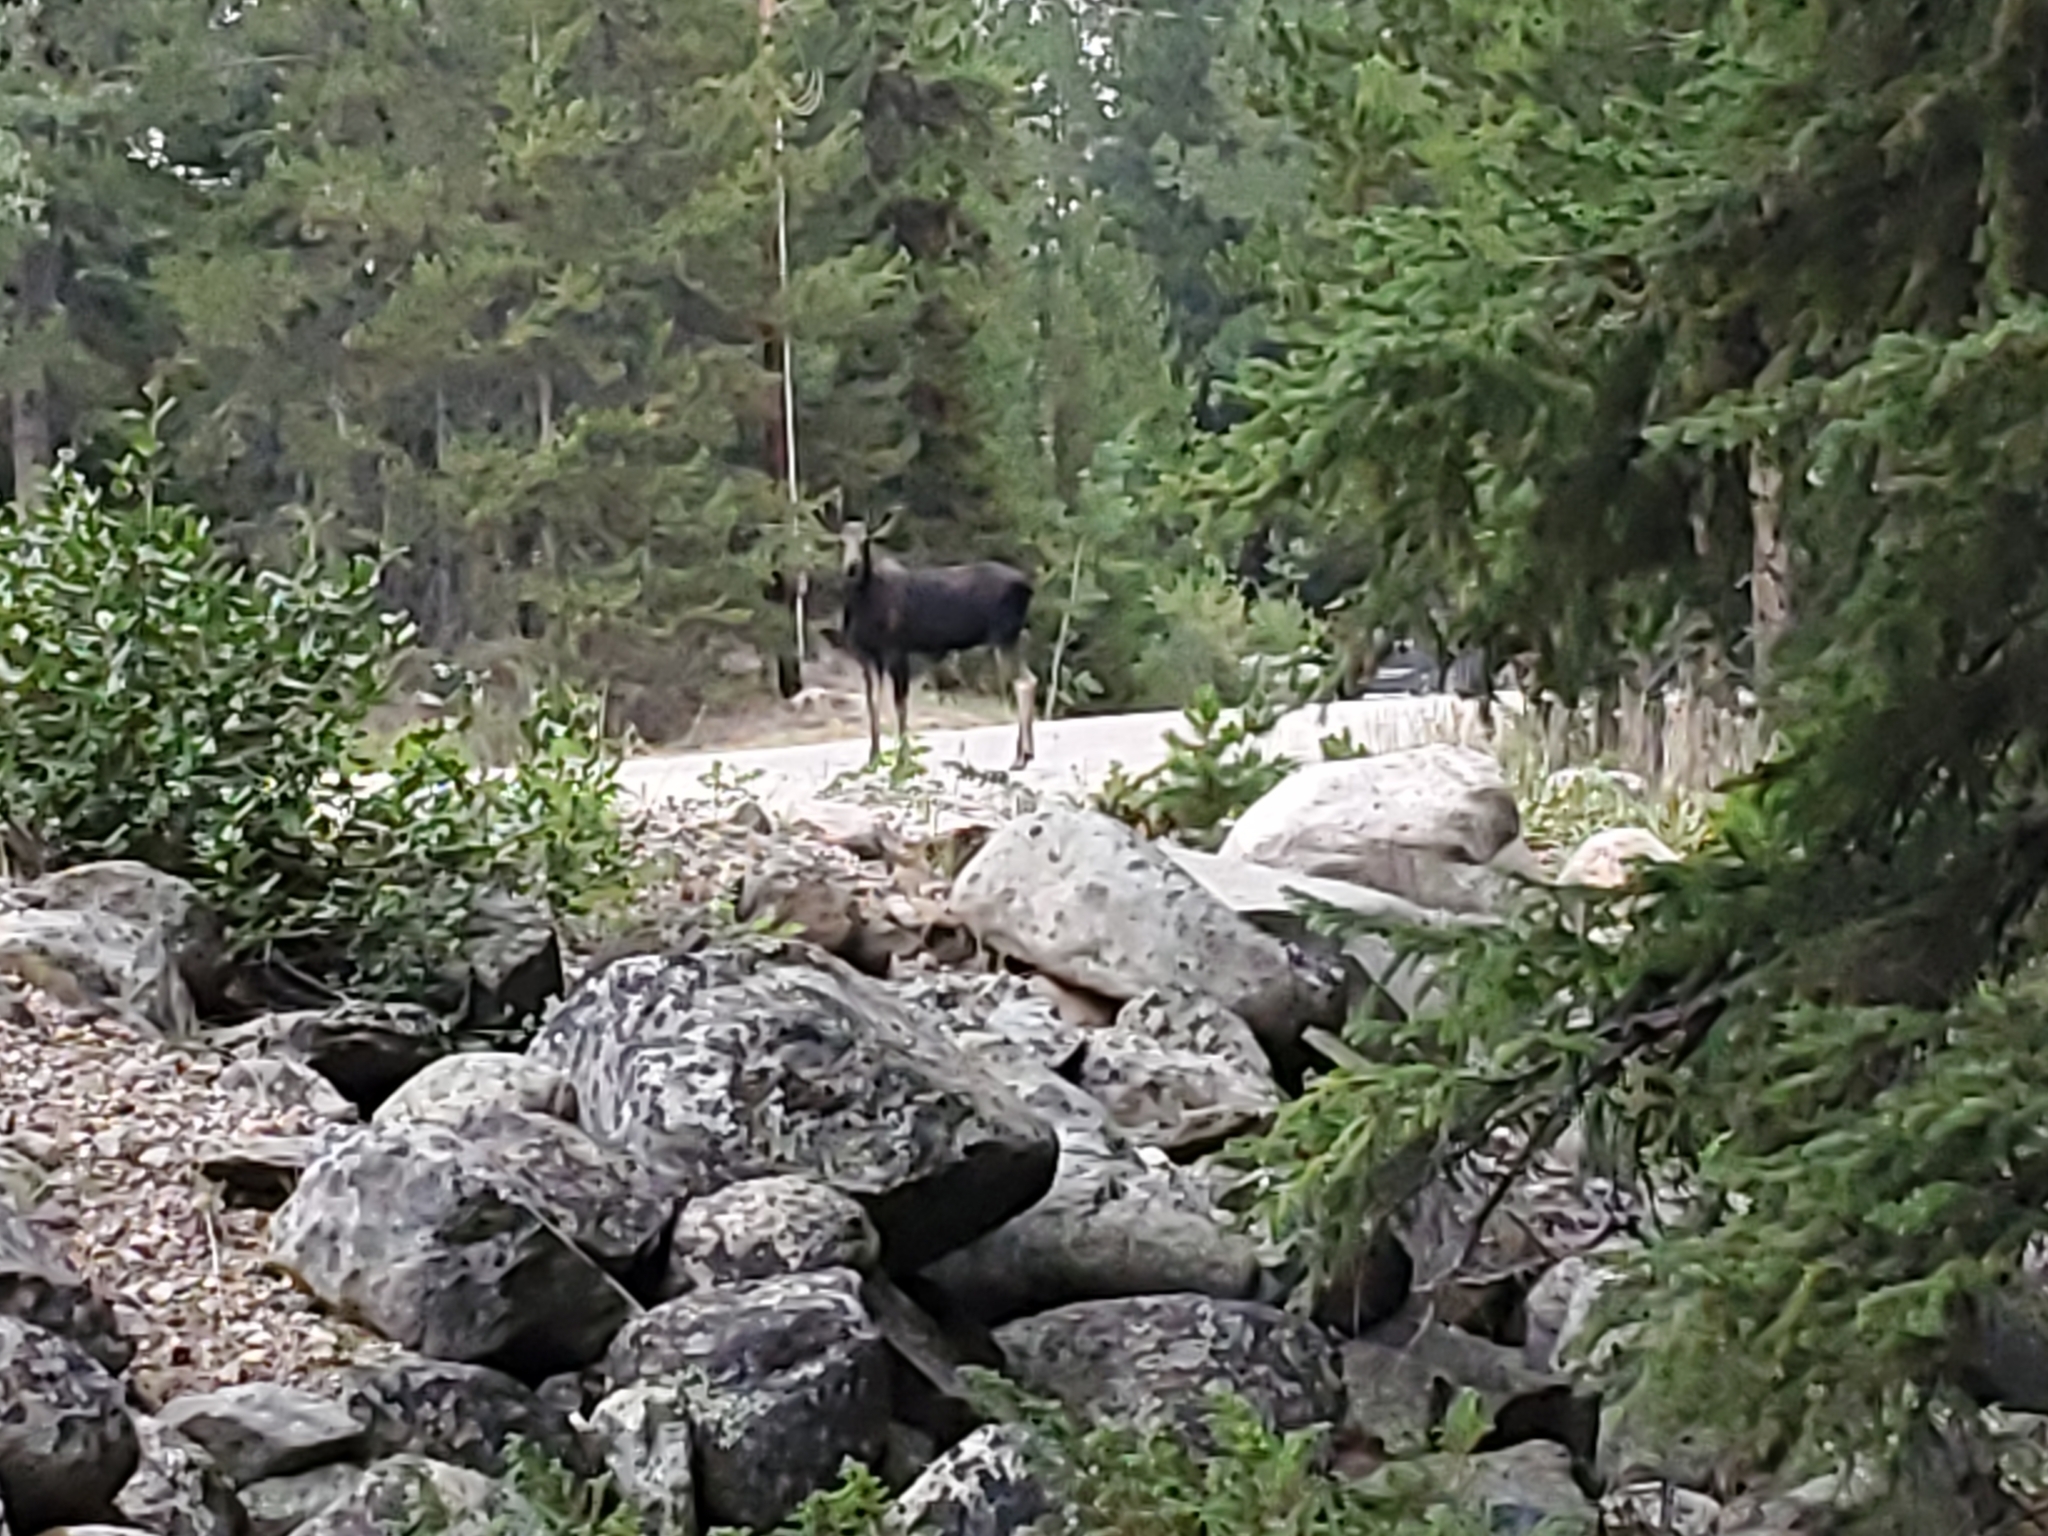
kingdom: Animalia
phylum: Chordata
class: Mammalia
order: Artiodactyla
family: Cervidae
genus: Alces
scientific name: Alces alces
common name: Moose
